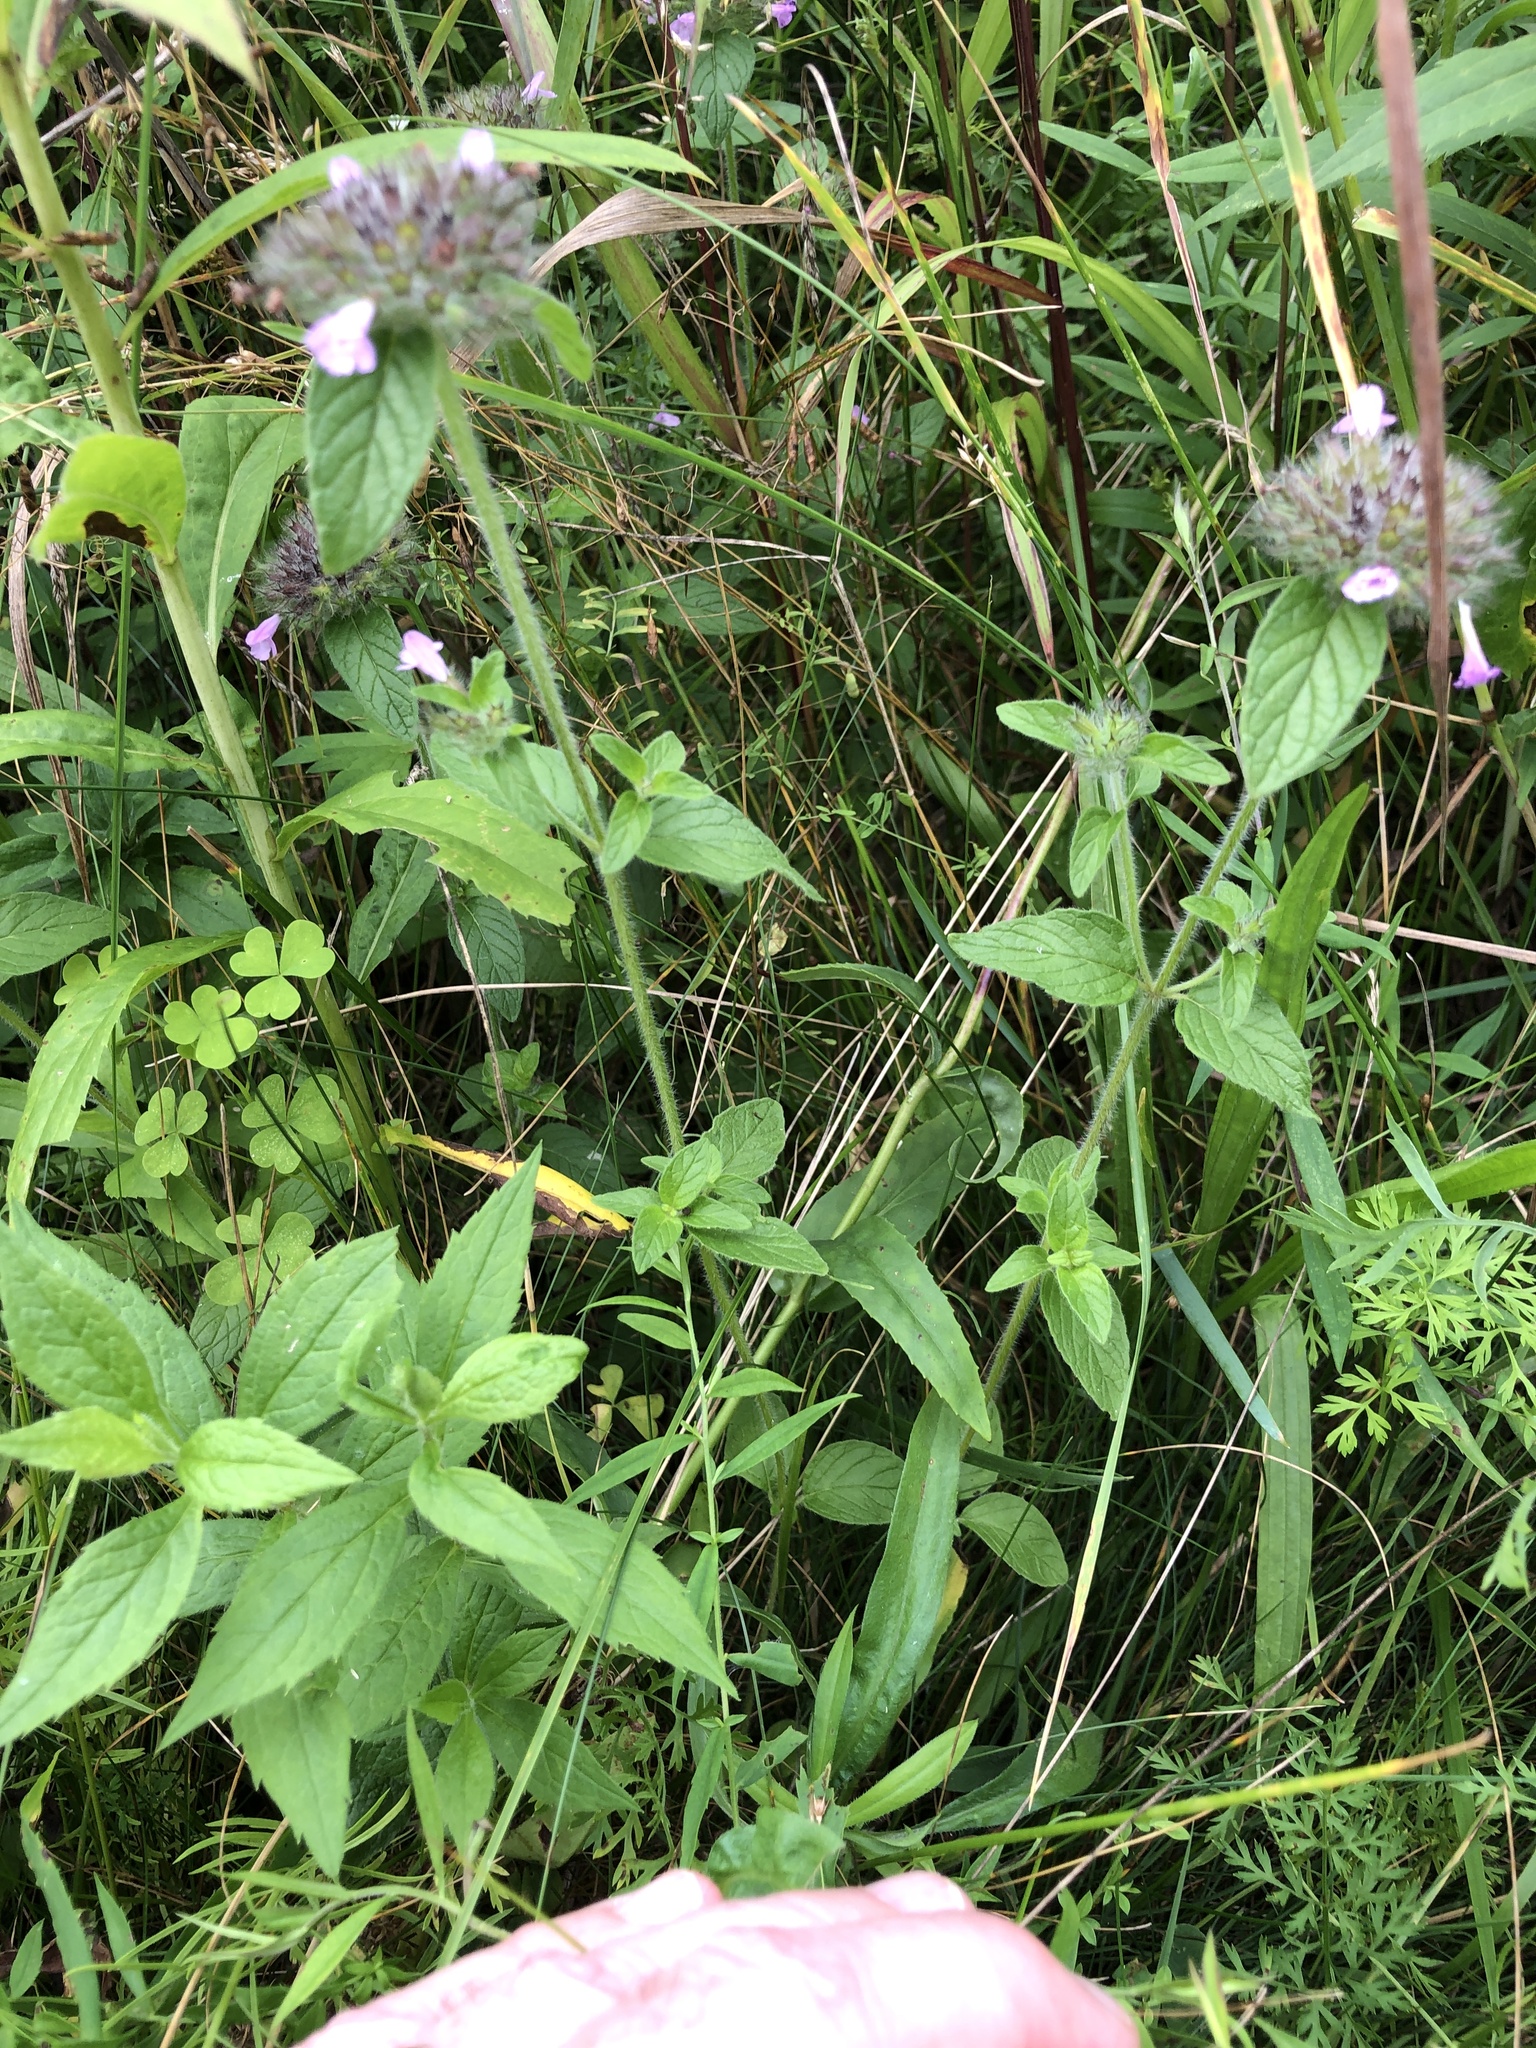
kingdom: Plantae
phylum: Tracheophyta
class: Magnoliopsida
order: Lamiales
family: Lamiaceae
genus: Clinopodium
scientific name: Clinopodium vulgare
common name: Wild basil
